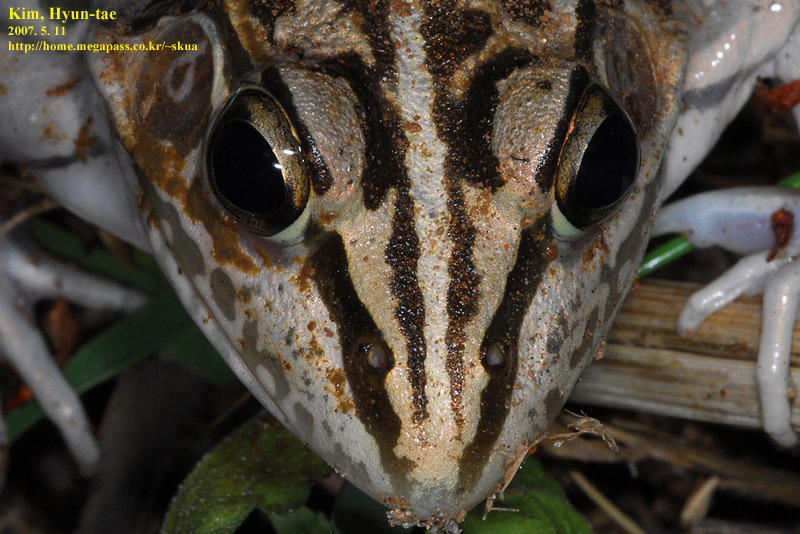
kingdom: Animalia
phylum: Chordata
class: Amphibia
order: Anura
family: Ranidae
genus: Pelophylax
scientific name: Pelophylax nigromaculatus
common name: Black-spotted pond frog
